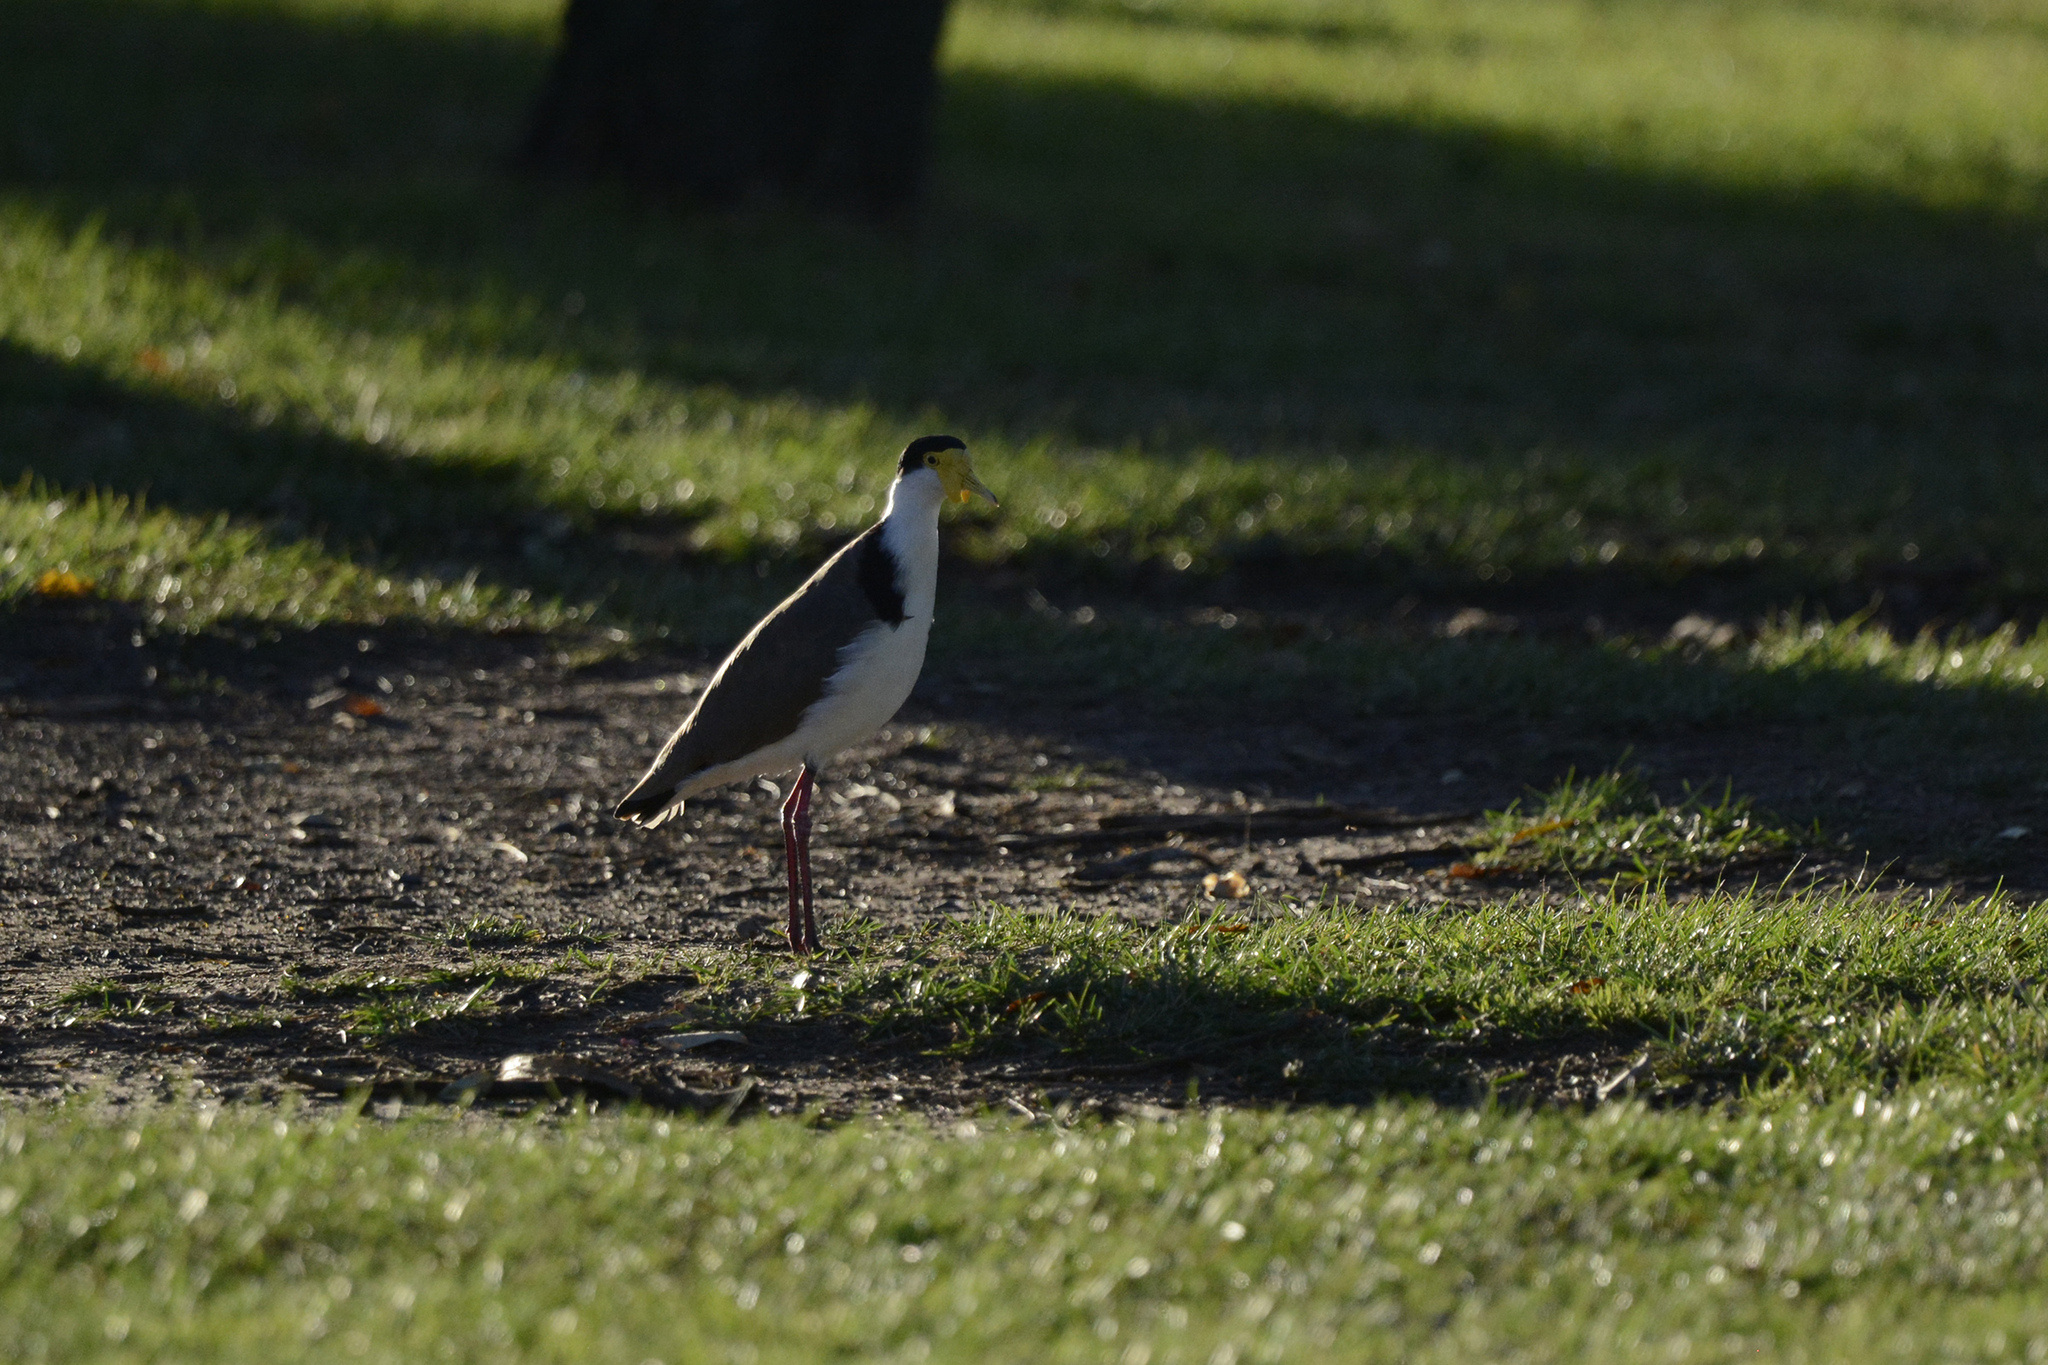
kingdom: Animalia
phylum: Chordata
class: Aves
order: Charadriiformes
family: Charadriidae
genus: Vanellus
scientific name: Vanellus miles
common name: Masked lapwing
